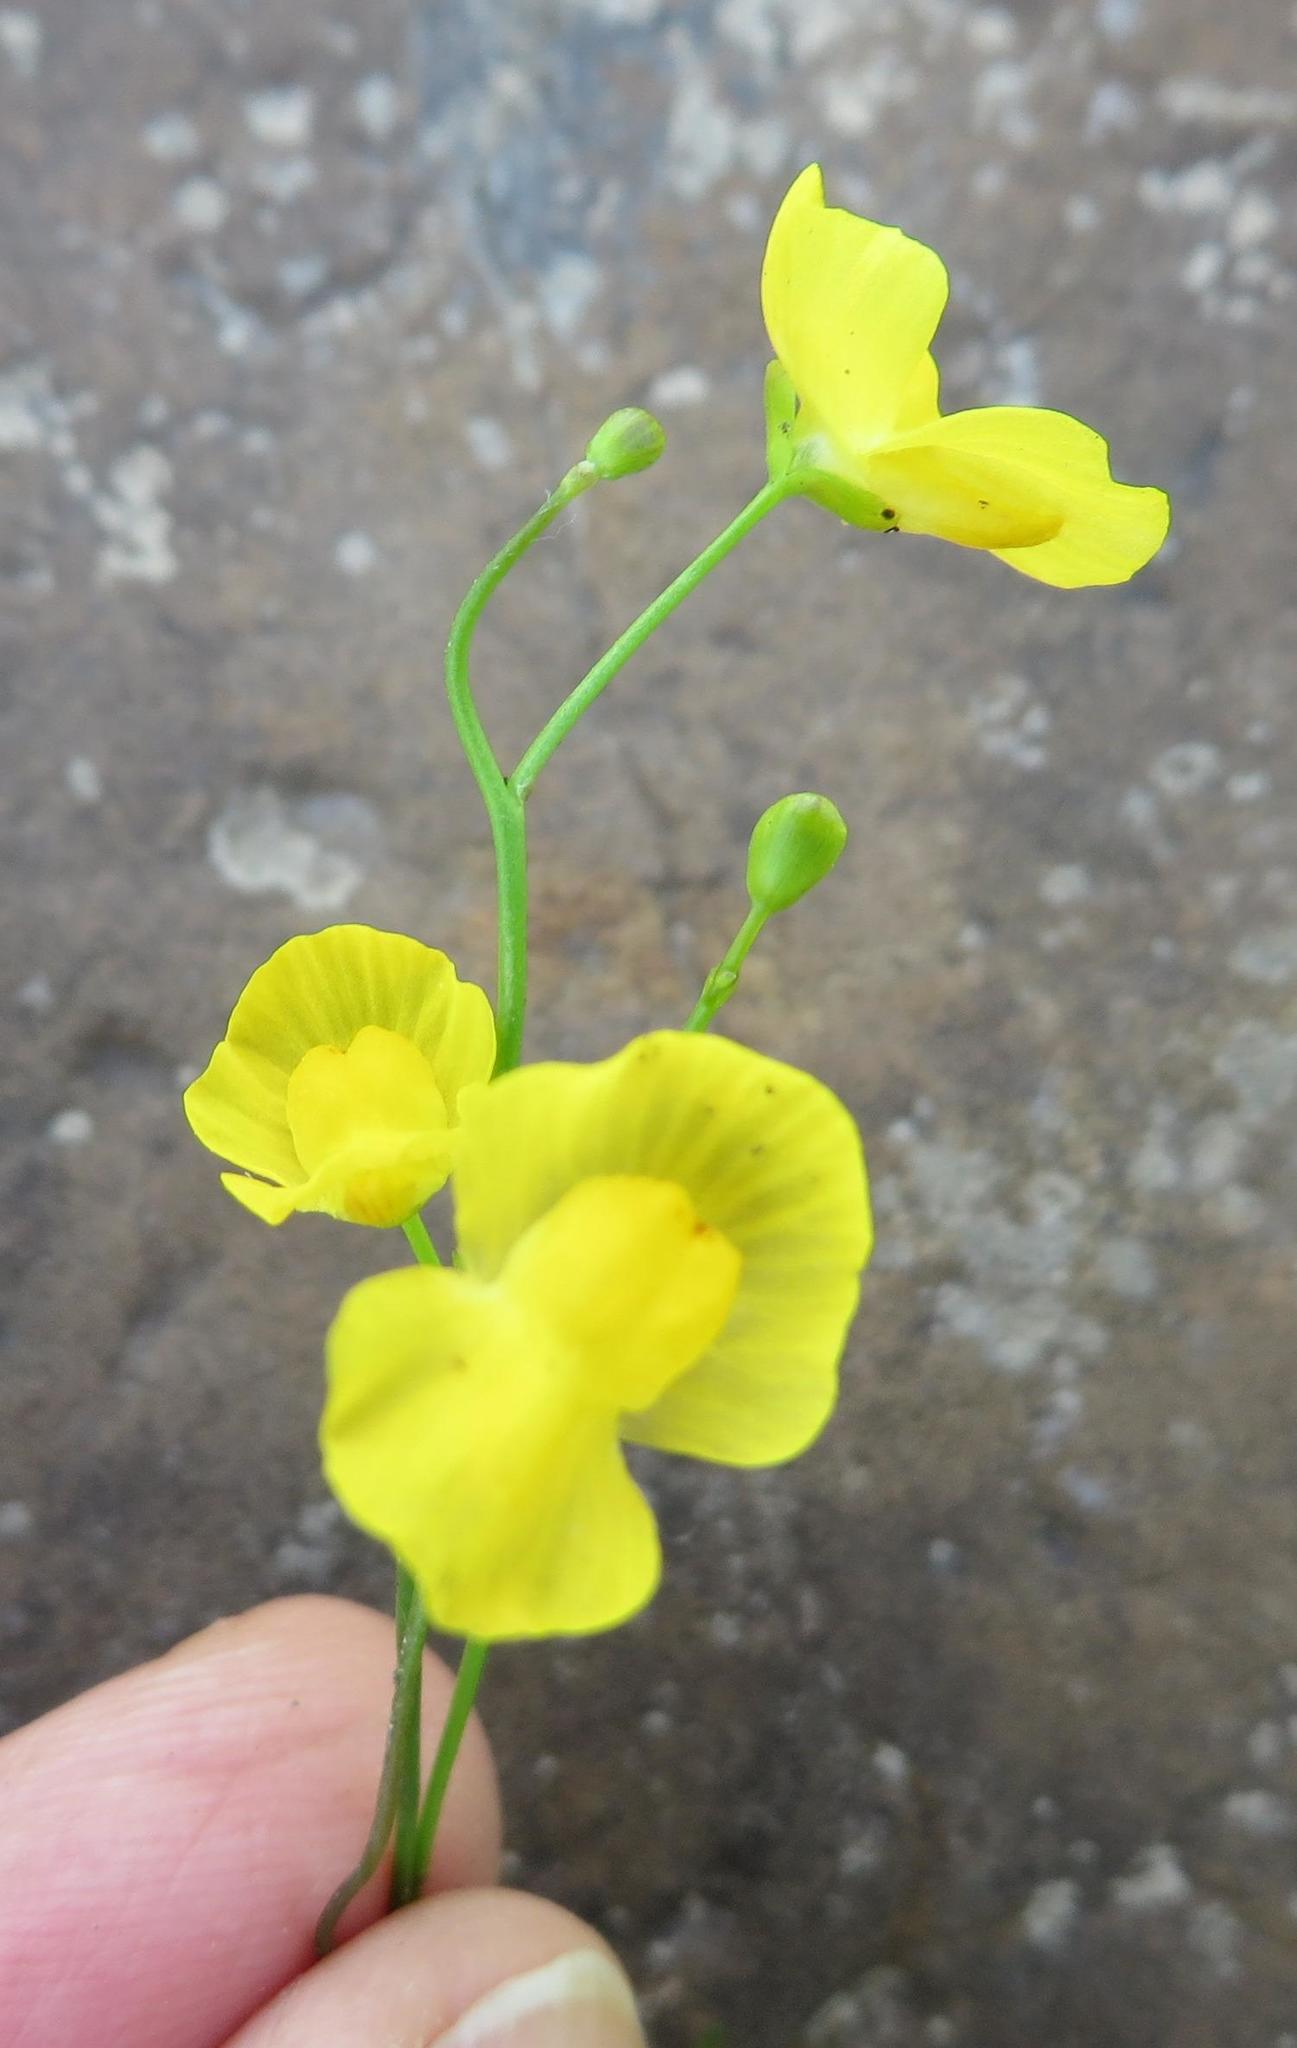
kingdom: Plantae
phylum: Tracheophyta
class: Magnoliopsida
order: Lamiales
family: Lentibulariaceae
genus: Utricularia
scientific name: Utricularia gibba
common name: Humped bladderwort
